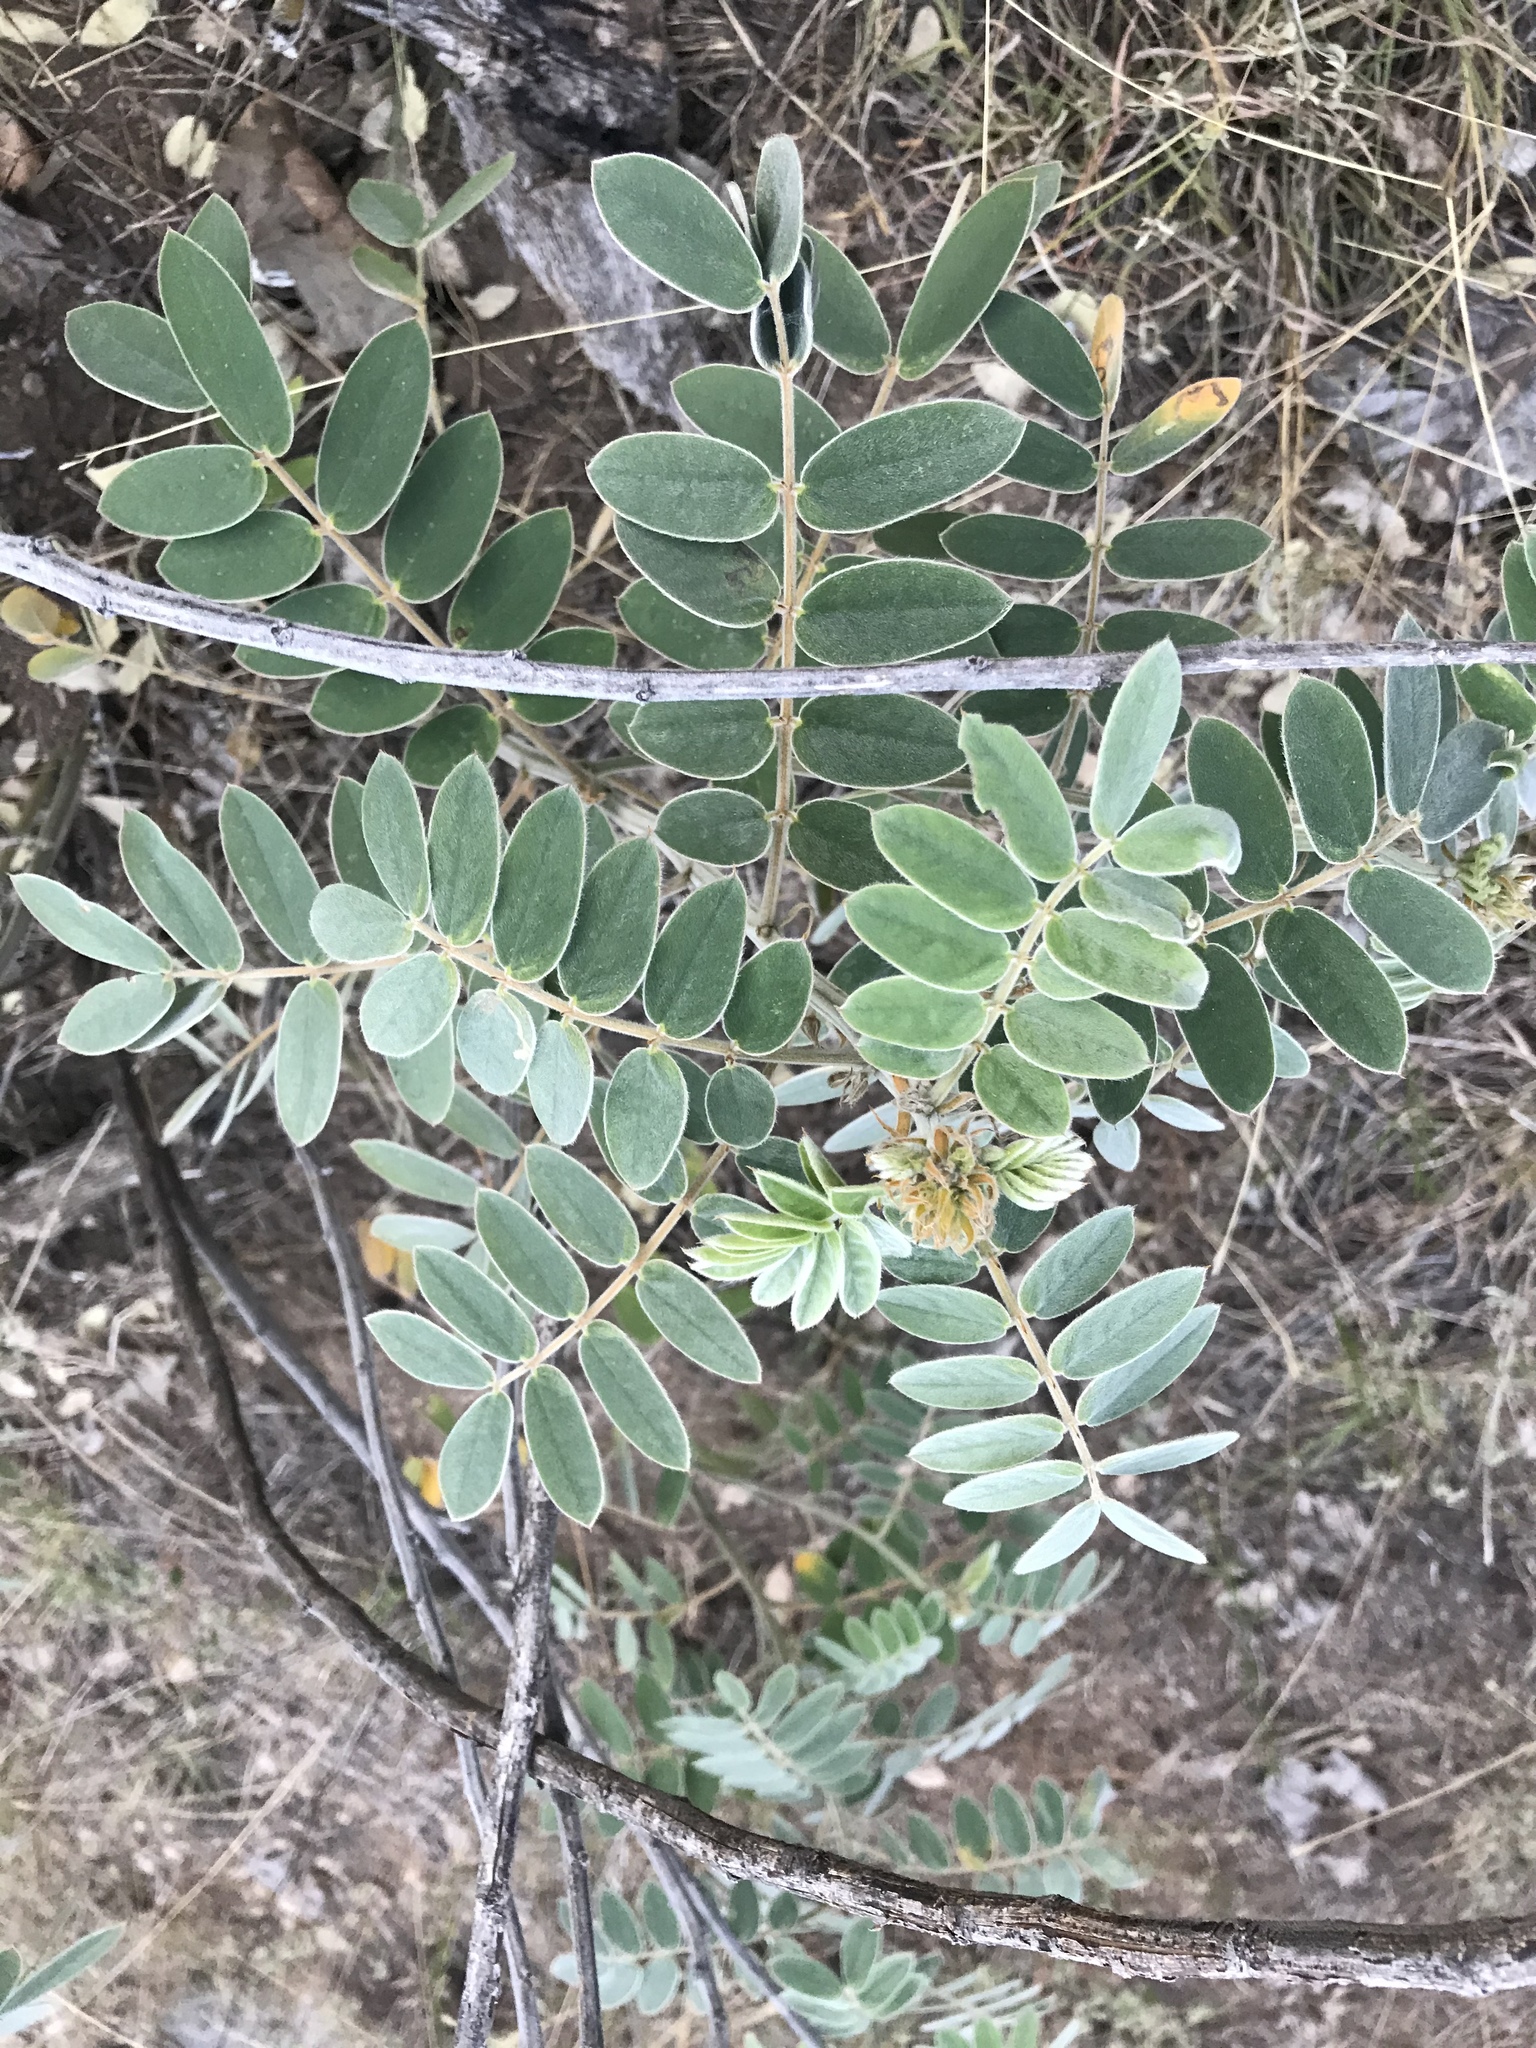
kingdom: Plantae
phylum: Tracheophyta
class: Magnoliopsida
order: Fabales
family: Fabaceae
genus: Senna
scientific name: Senna lindheimeriana
